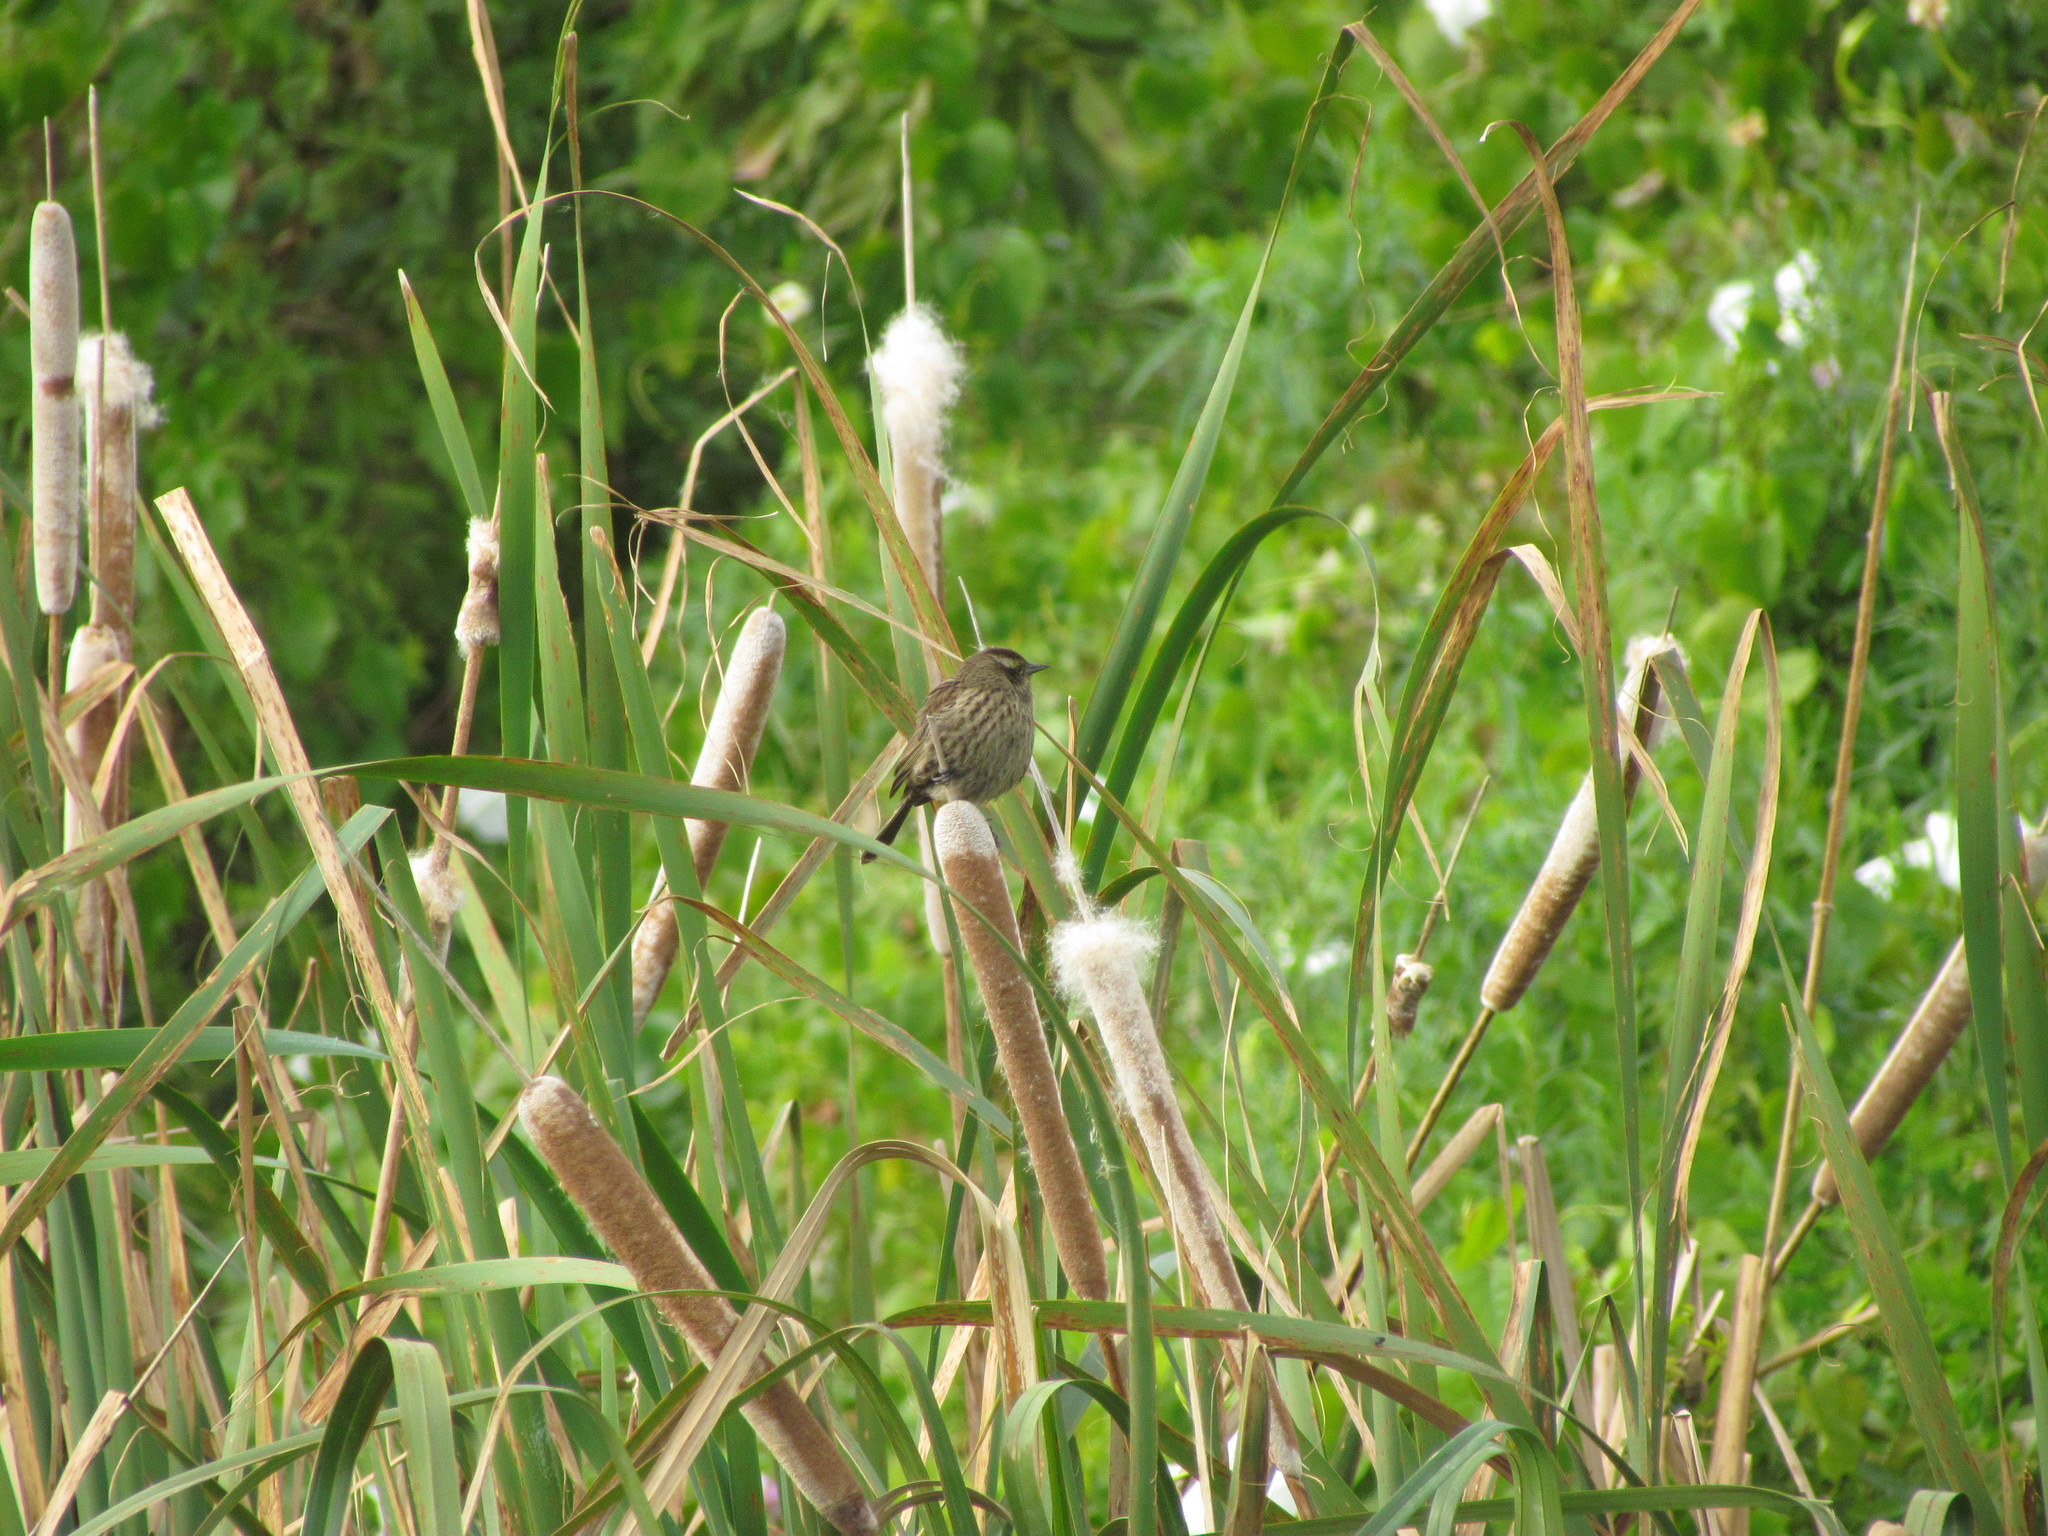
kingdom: Animalia
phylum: Chordata
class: Aves
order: Passeriformes
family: Icteridae
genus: Agelasticus
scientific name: Agelasticus thilius
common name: Yellow-winged blackbird
